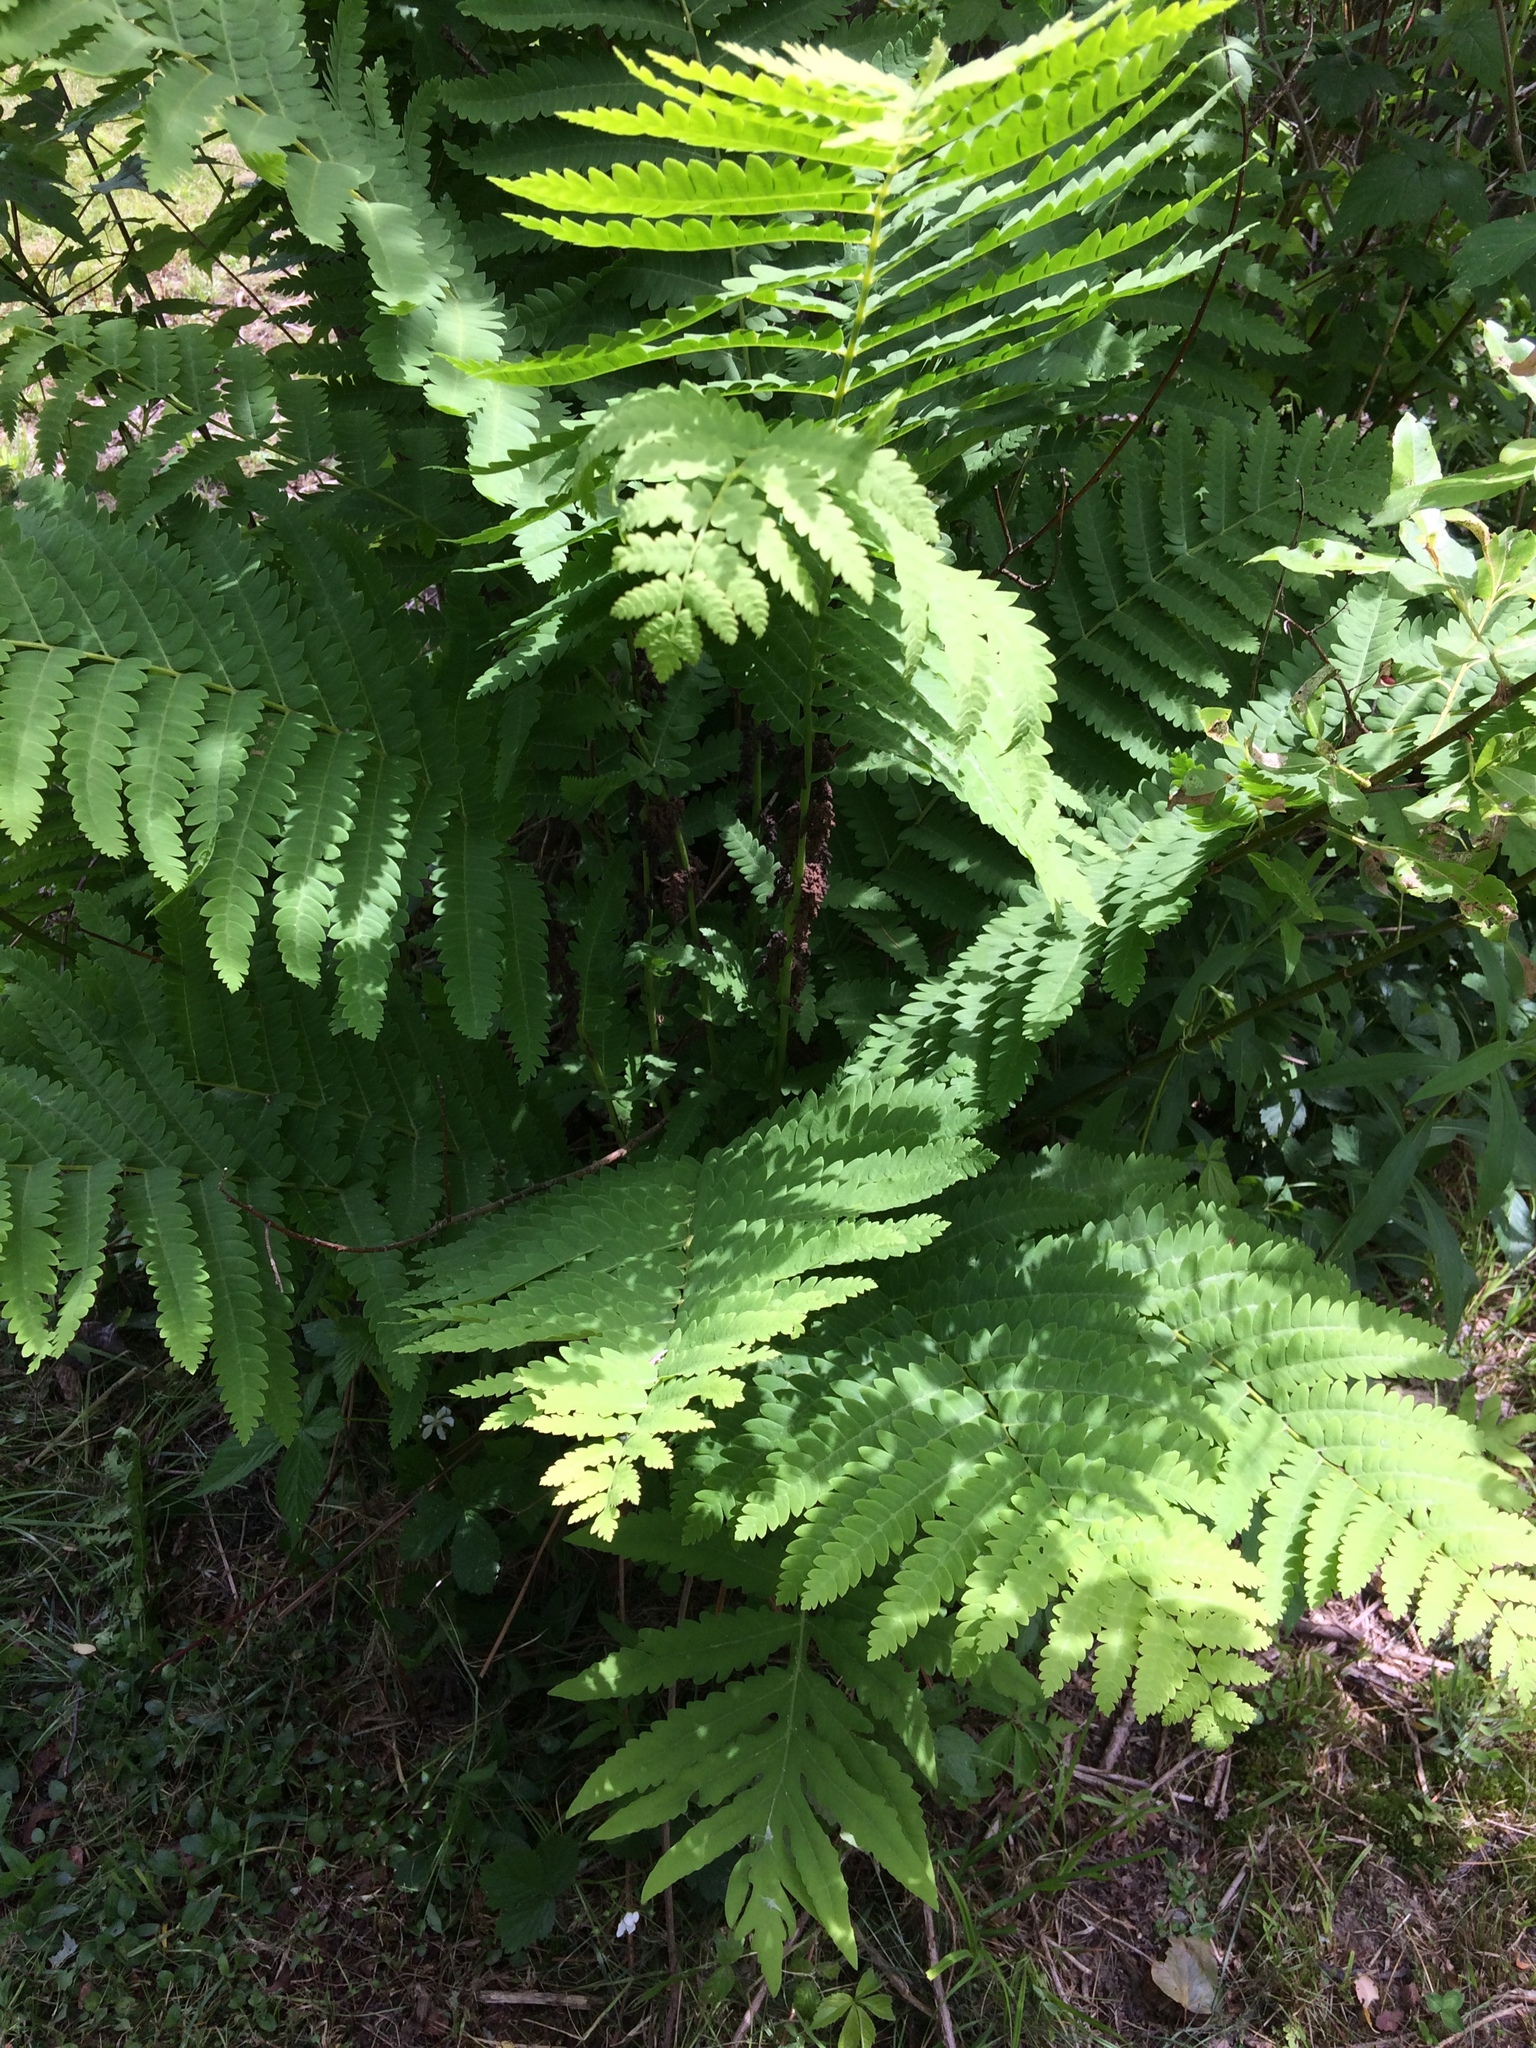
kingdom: Plantae
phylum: Tracheophyta
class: Polypodiopsida
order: Osmundales
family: Osmundaceae
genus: Claytosmunda
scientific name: Claytosmunda claytoniana
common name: Clayton's fern
